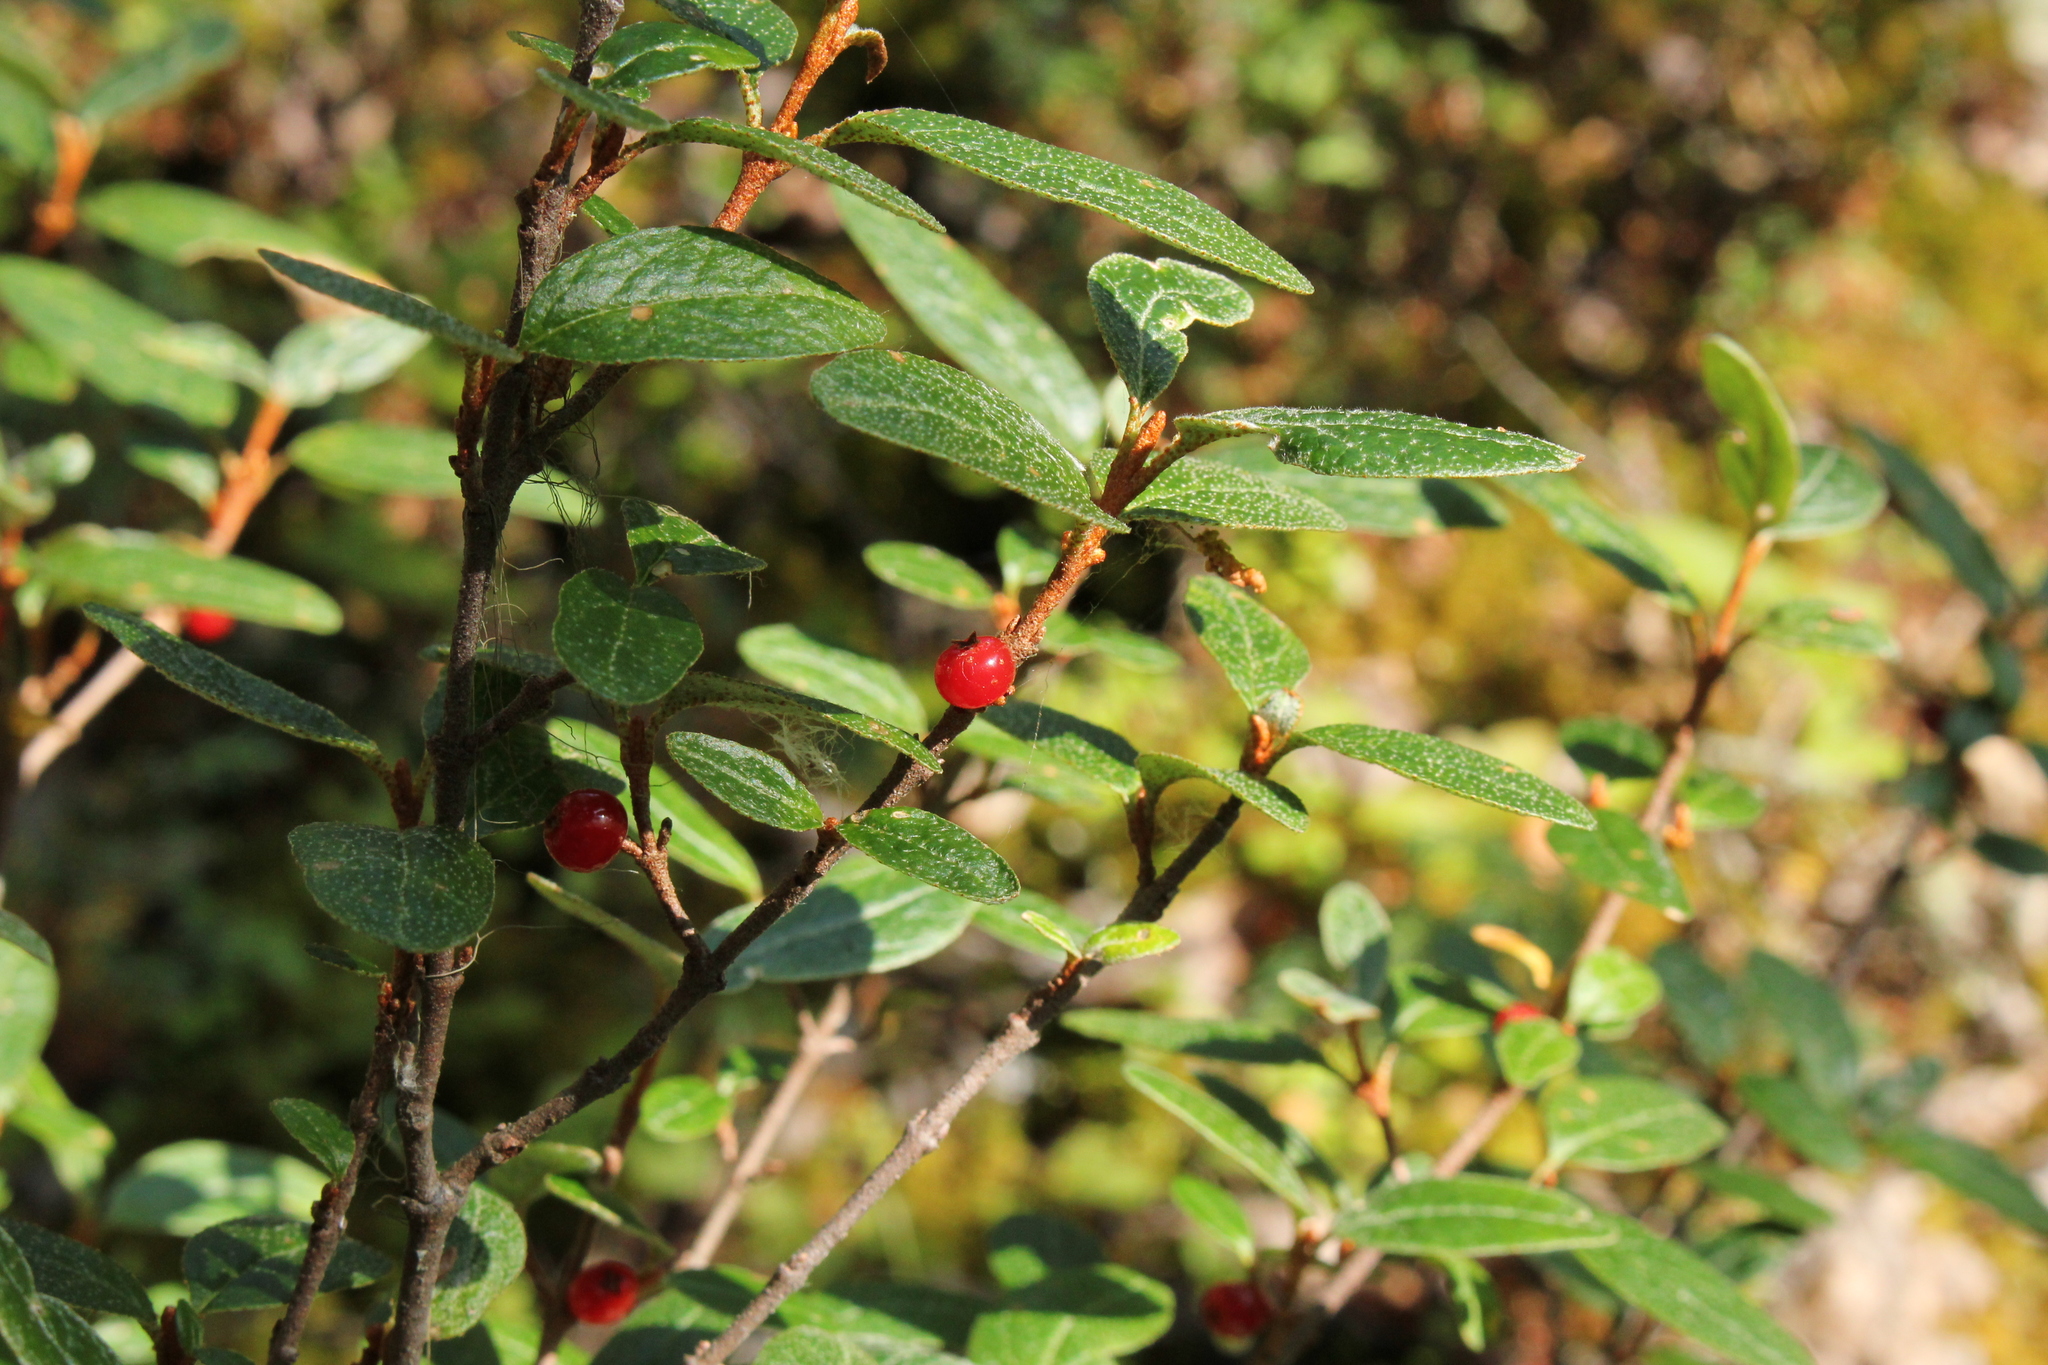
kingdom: Plantae
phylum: Tracheophyta
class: Magnoliopsida
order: Rosales
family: Elaeagnaceae
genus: Shepherdia
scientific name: Shepherdia canadensis
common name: Soapberry
